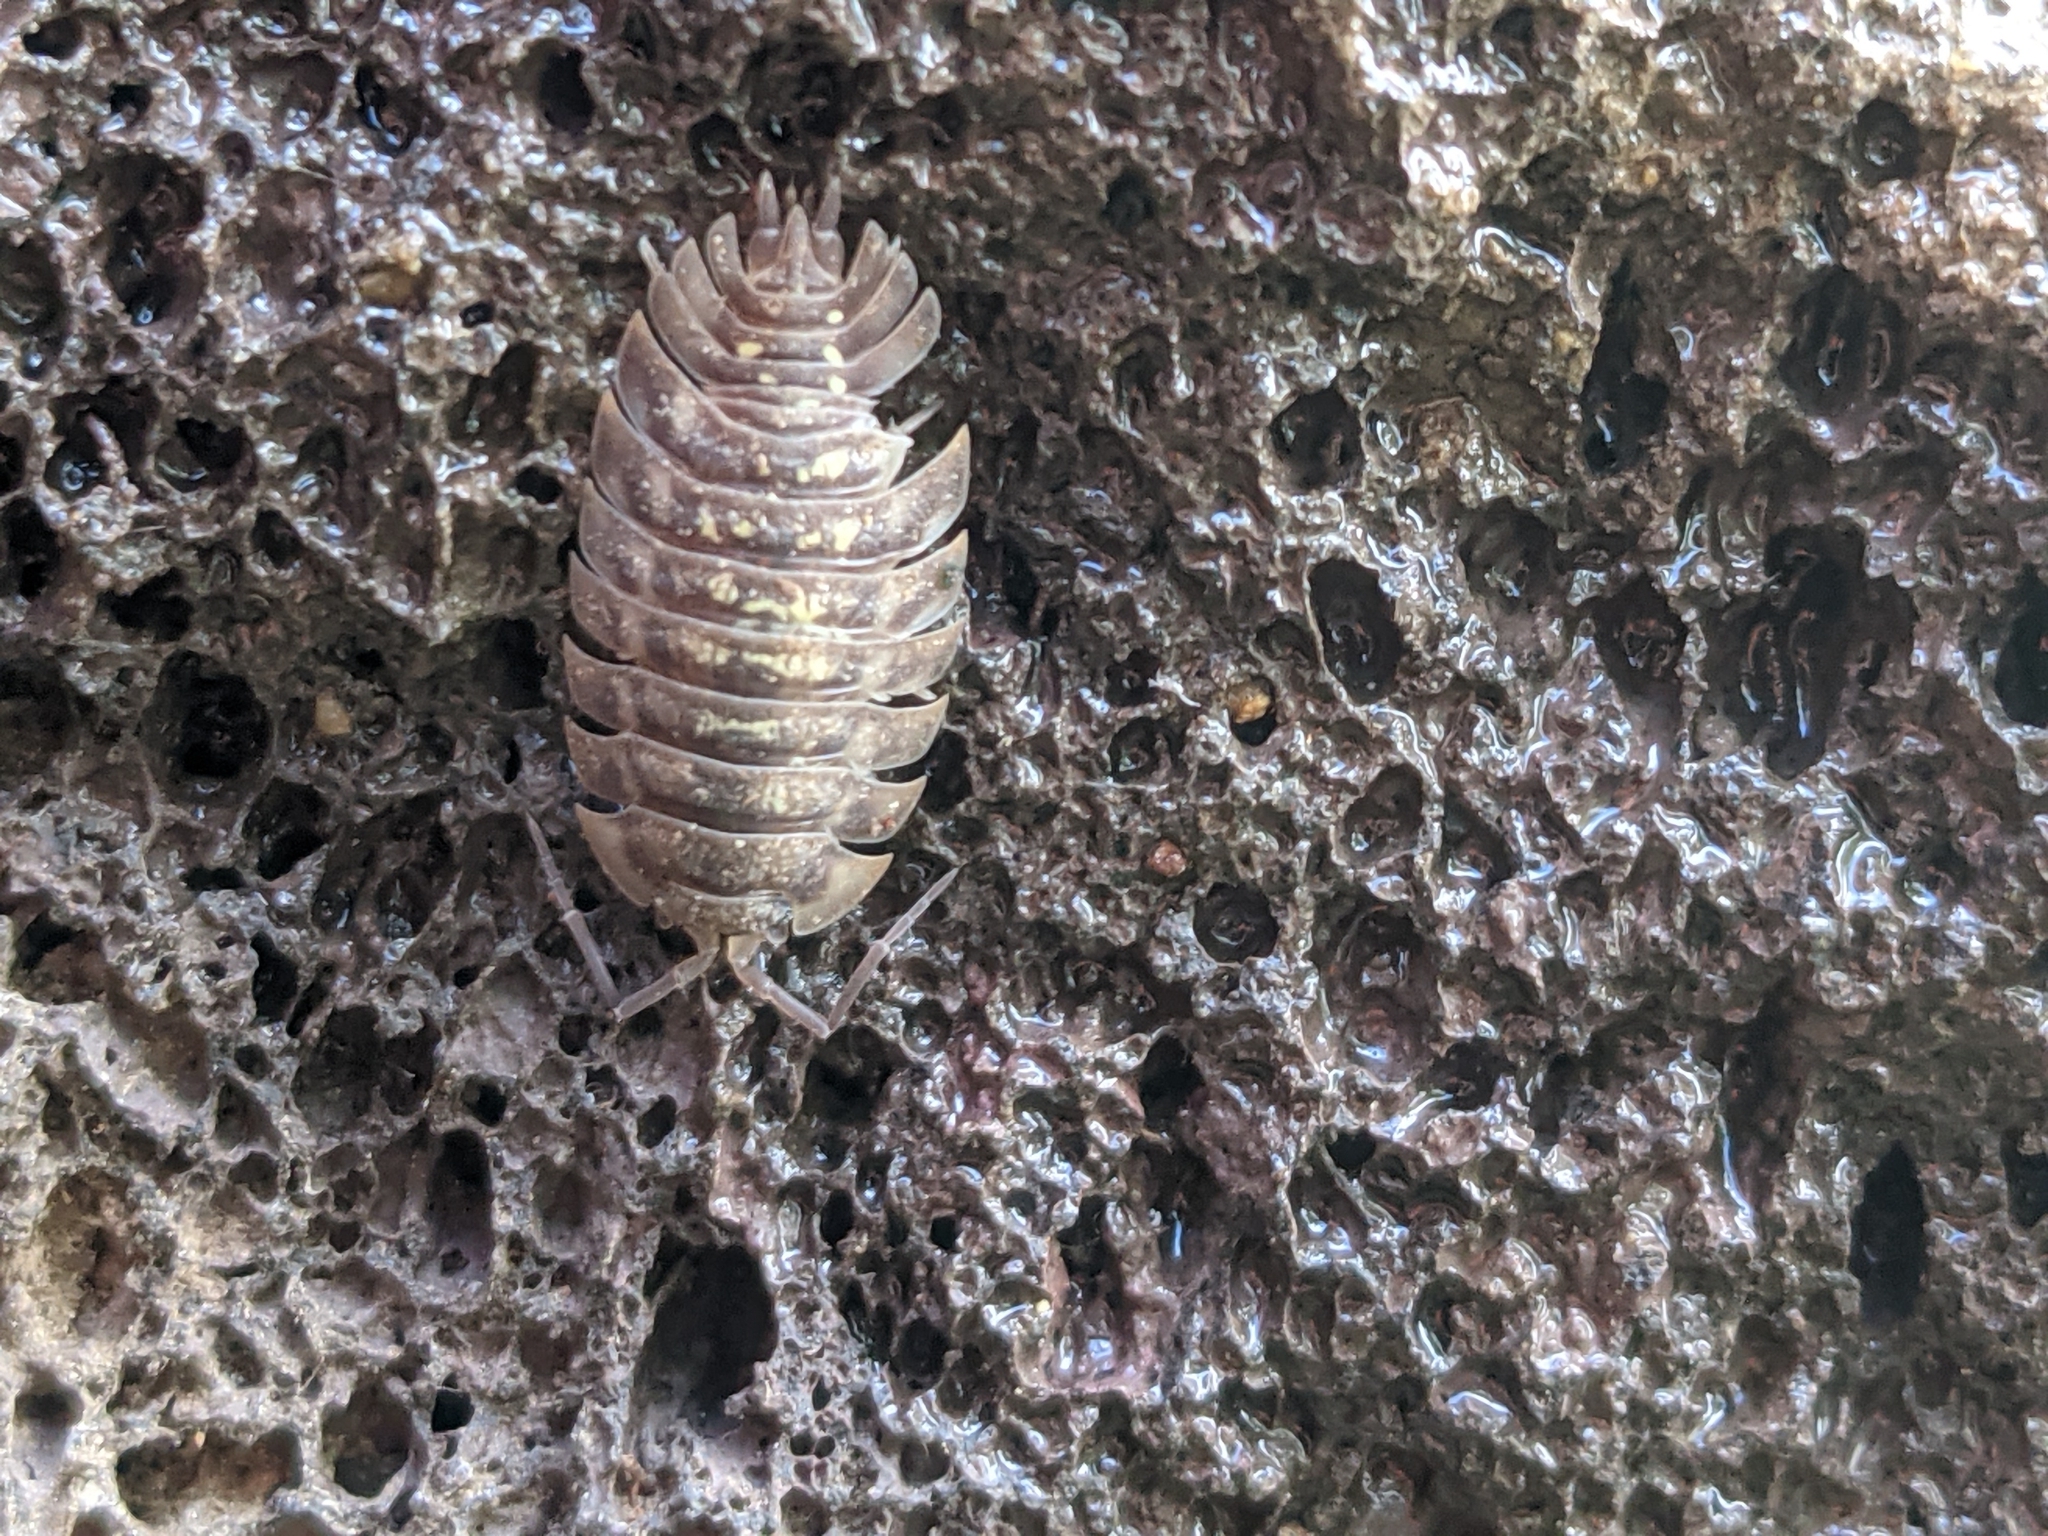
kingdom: Animalia
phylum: Arthropoda
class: Malacostraca
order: Isopoda
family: Oniscidae
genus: Oniscus
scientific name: Oniscus asellus
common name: Common shiny woodlouse
